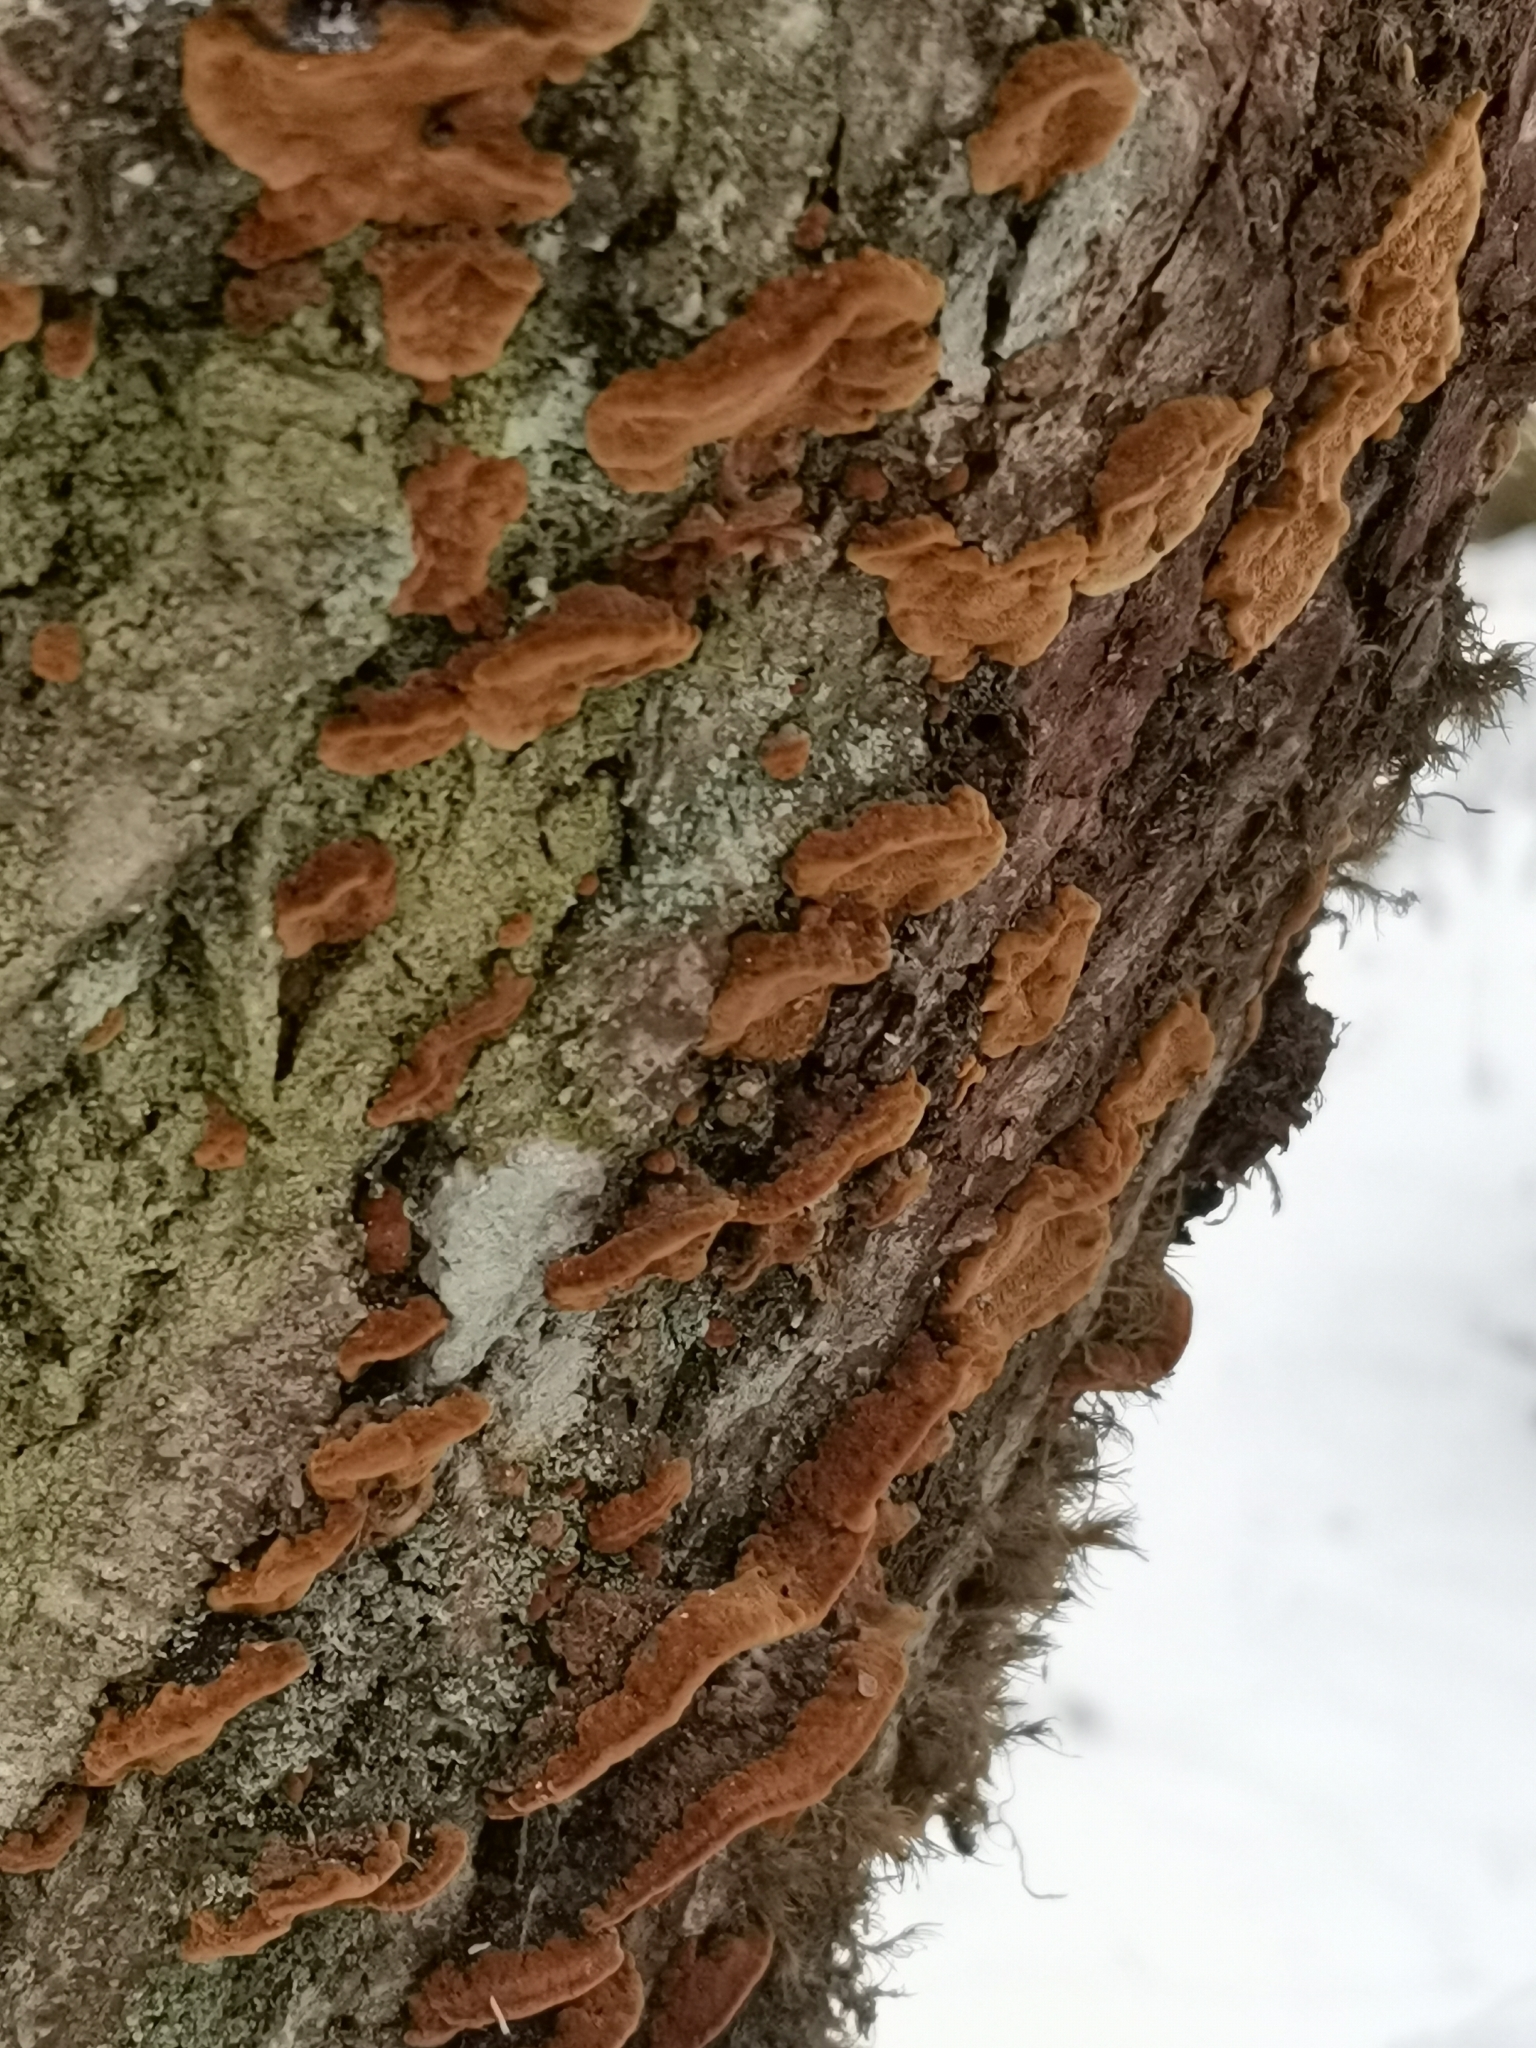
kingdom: Fungi
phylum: Basidiomycota
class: Agaricomycetes
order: Hymenochaetales
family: Hymenochaetaceae
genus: Phellinopsis
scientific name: Phellinopsis conchata
